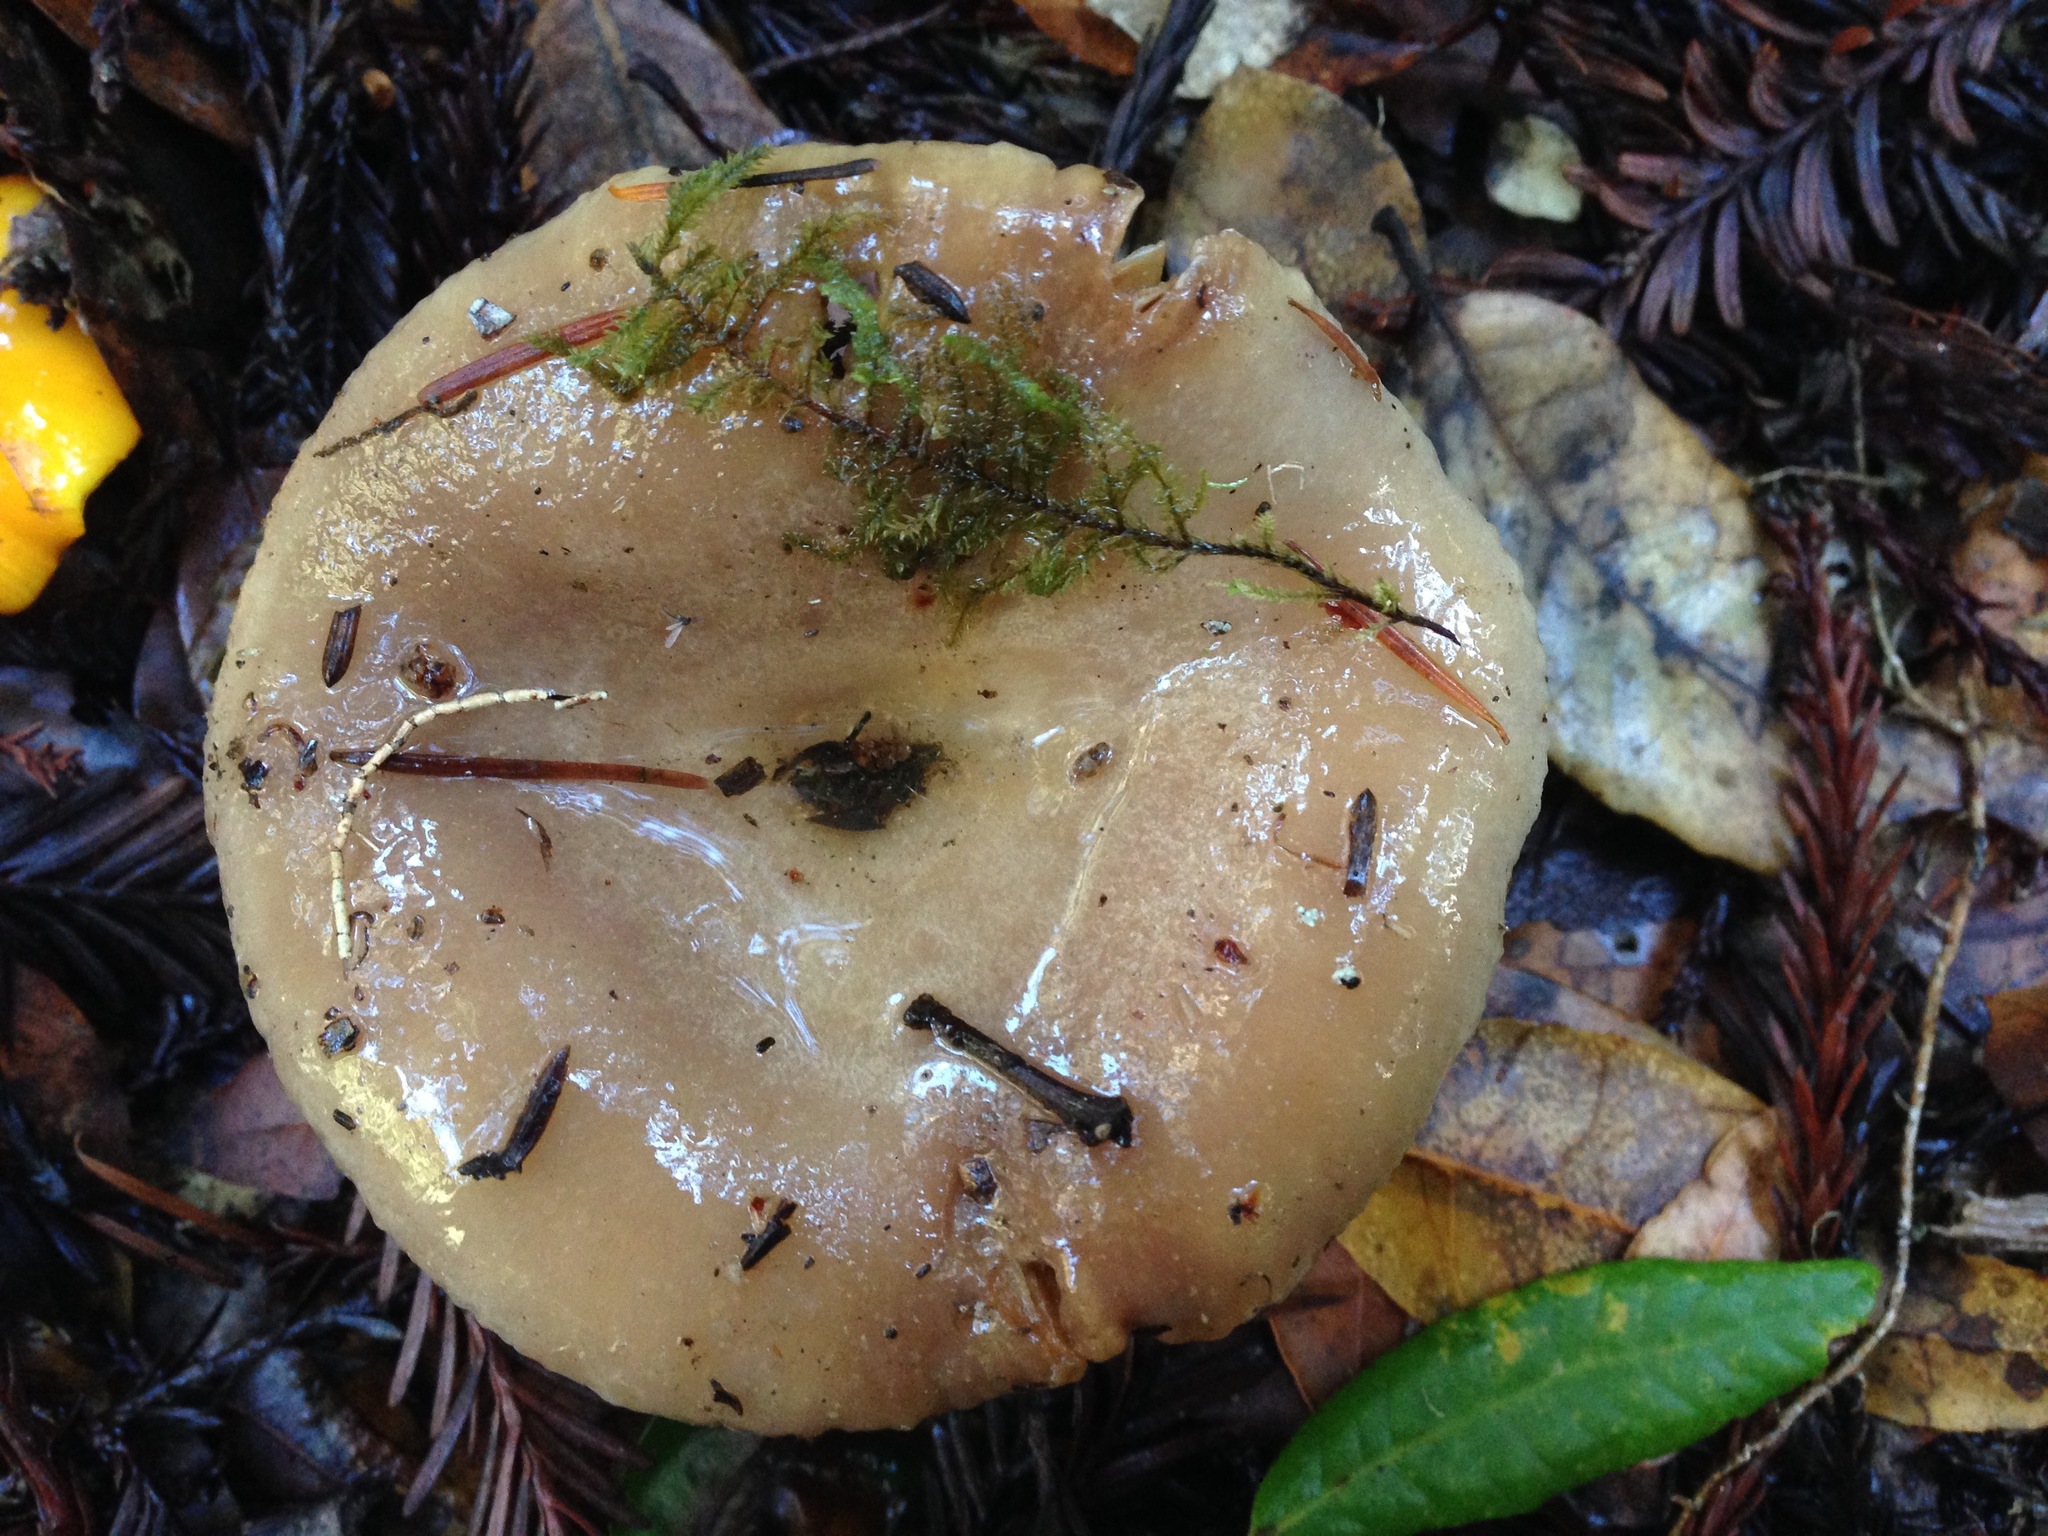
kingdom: Fungi
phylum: Basidiomycota
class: Agaricomycetes
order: Russulales
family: Russulaceae
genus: Lactarius
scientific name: Lactarius californiensis
